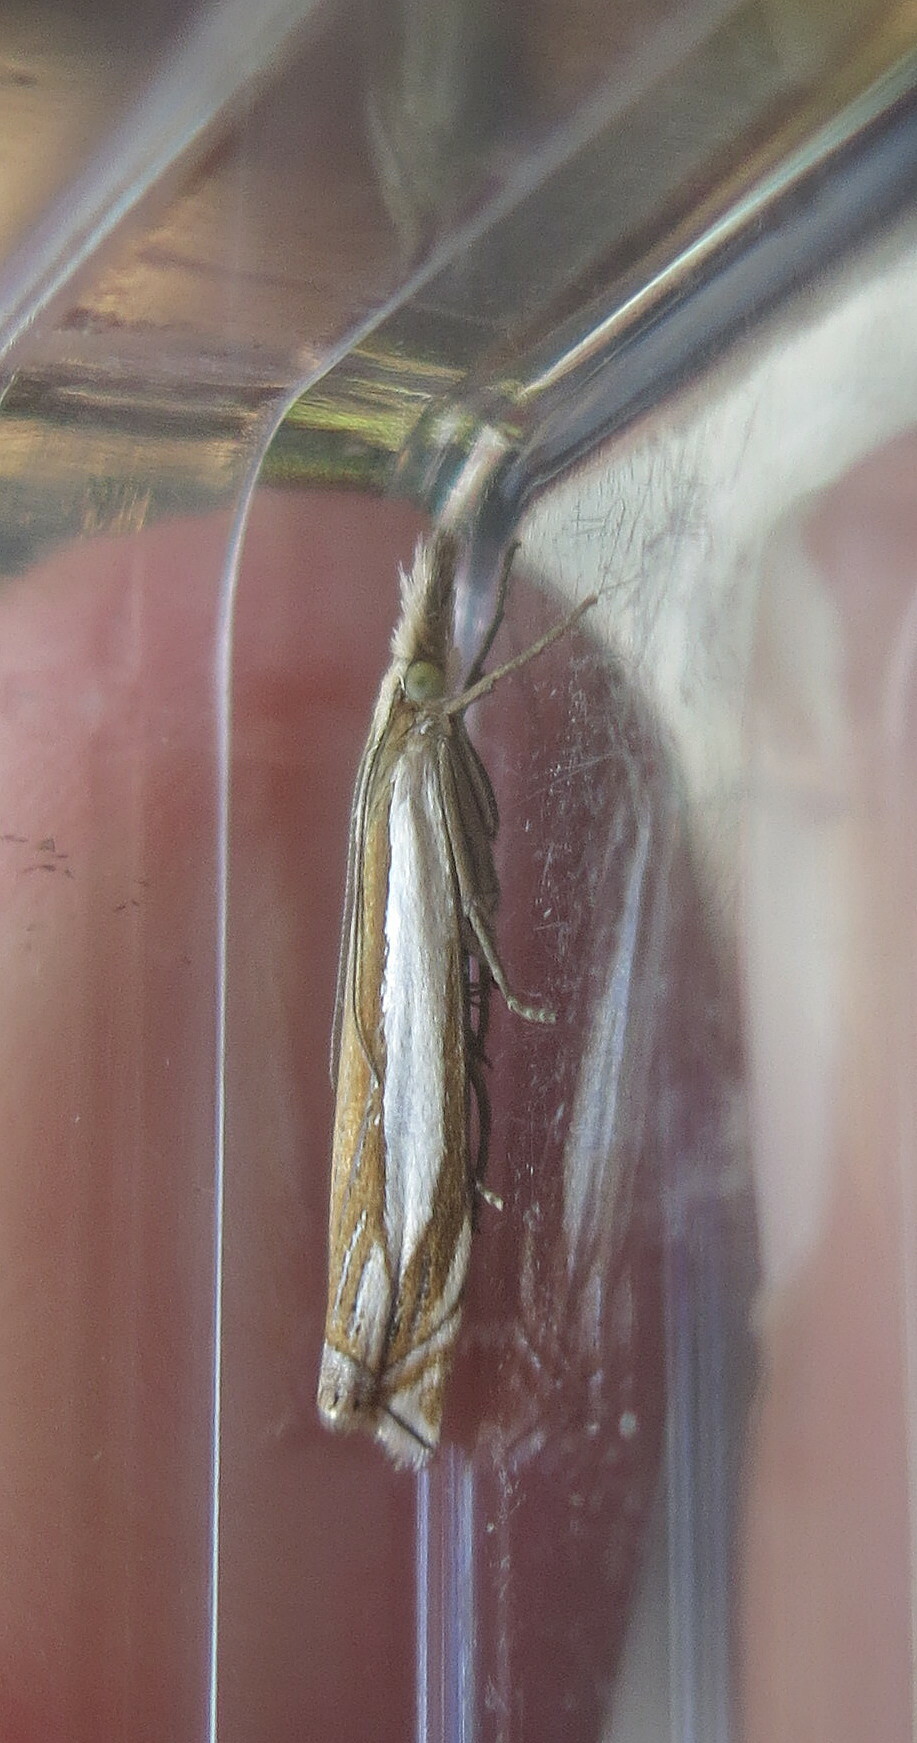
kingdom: Animalia
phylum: Arthropoda
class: Insecta
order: Lepidoptera
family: Crambidae
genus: Crambus
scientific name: Crambus pascuella
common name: Inlaid grass-veneer
